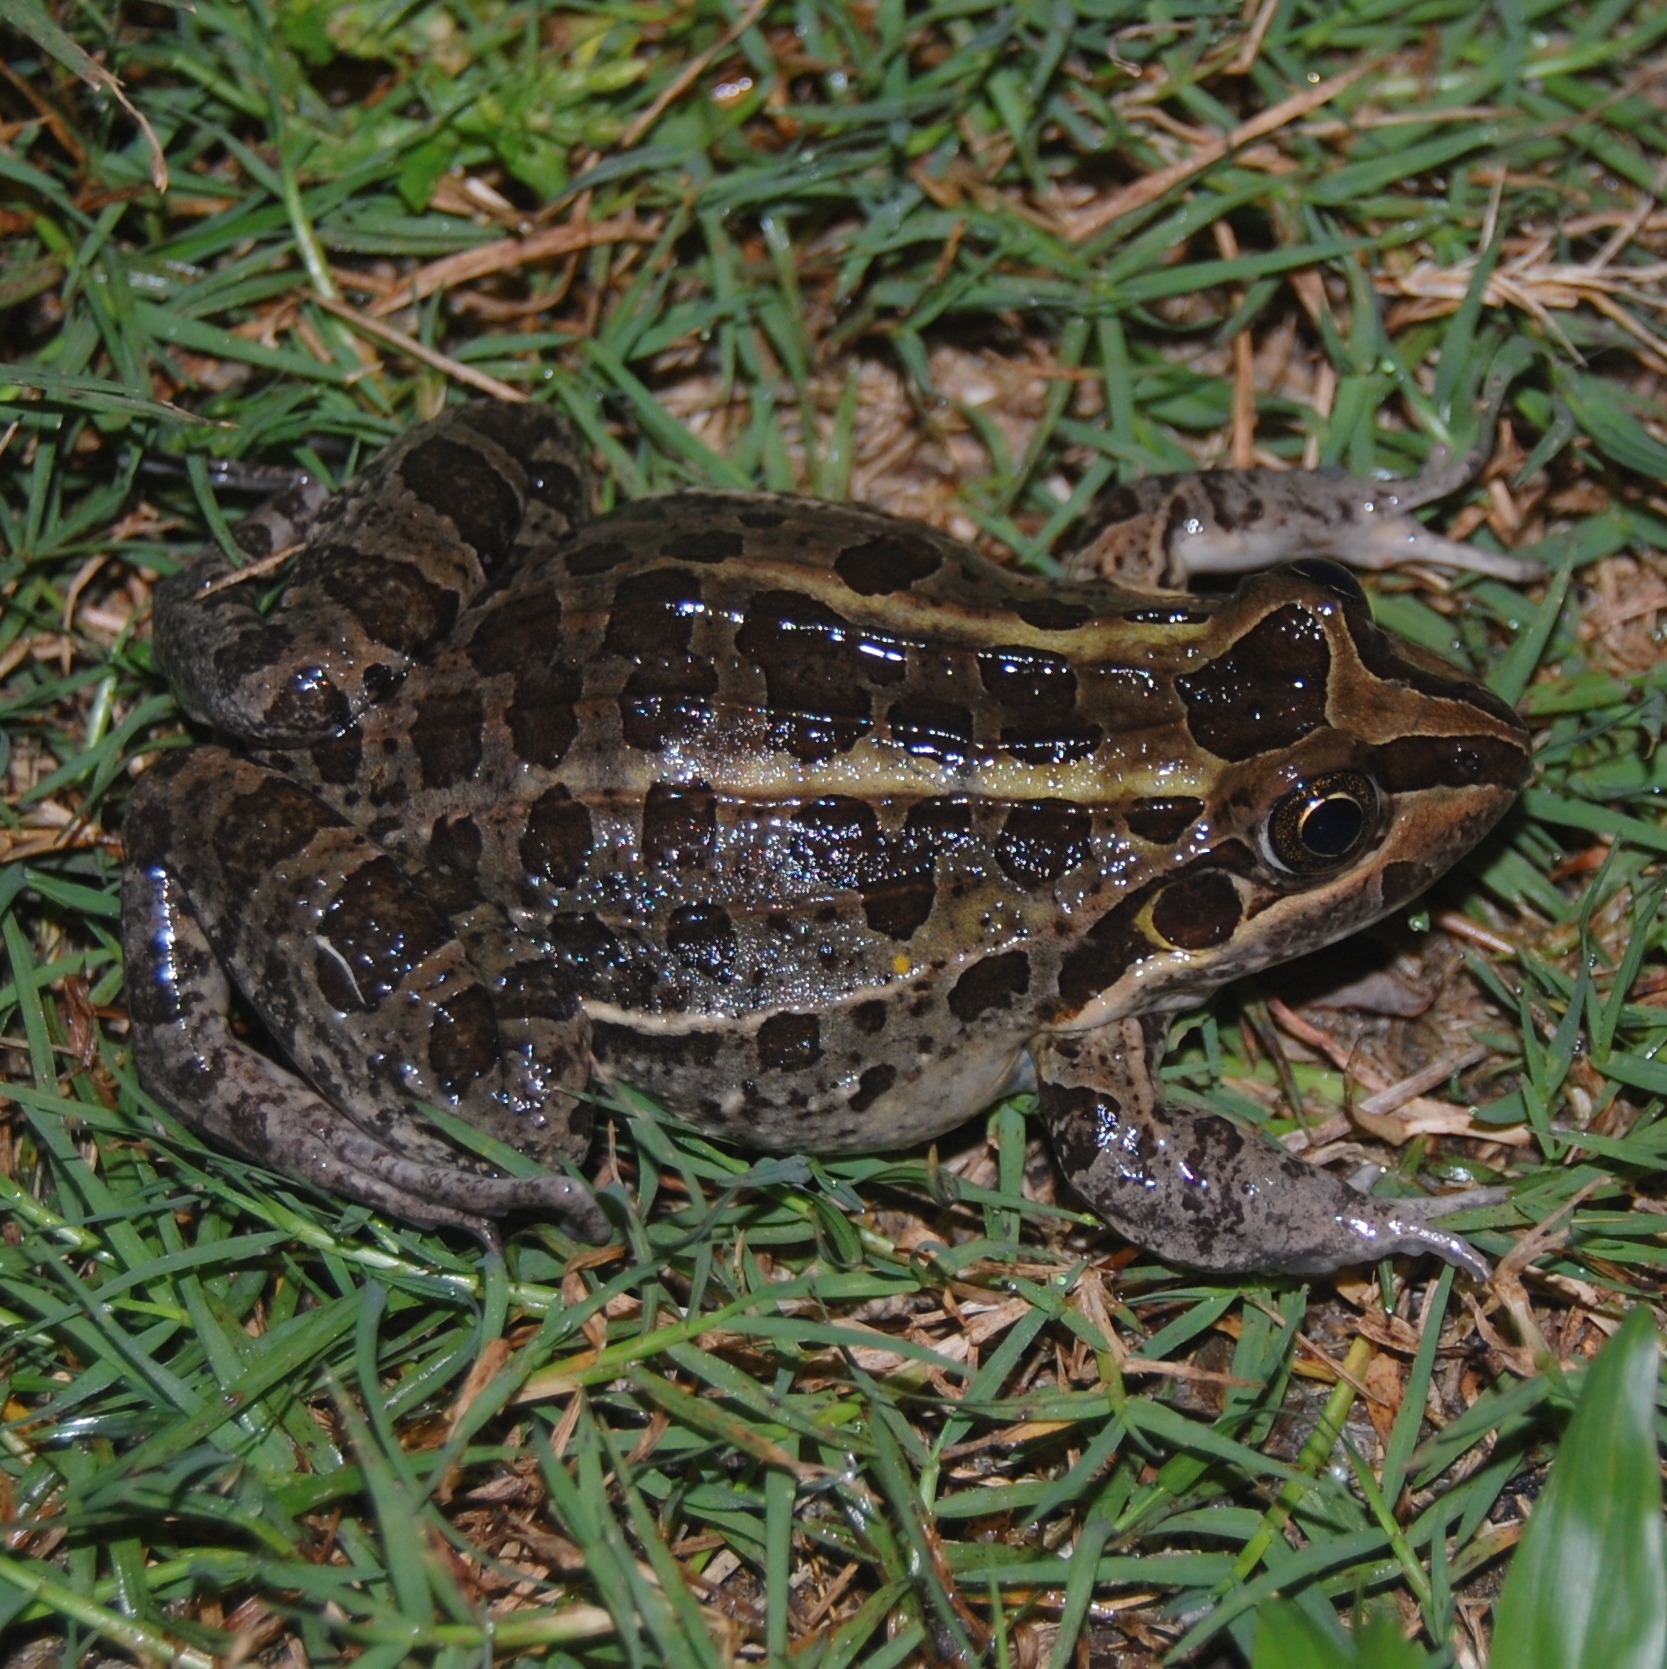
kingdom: Animalia
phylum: Chordata
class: Amphibia
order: Anura
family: Leptodactylidae
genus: Leptodactylus
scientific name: Leptodactylus luctator
